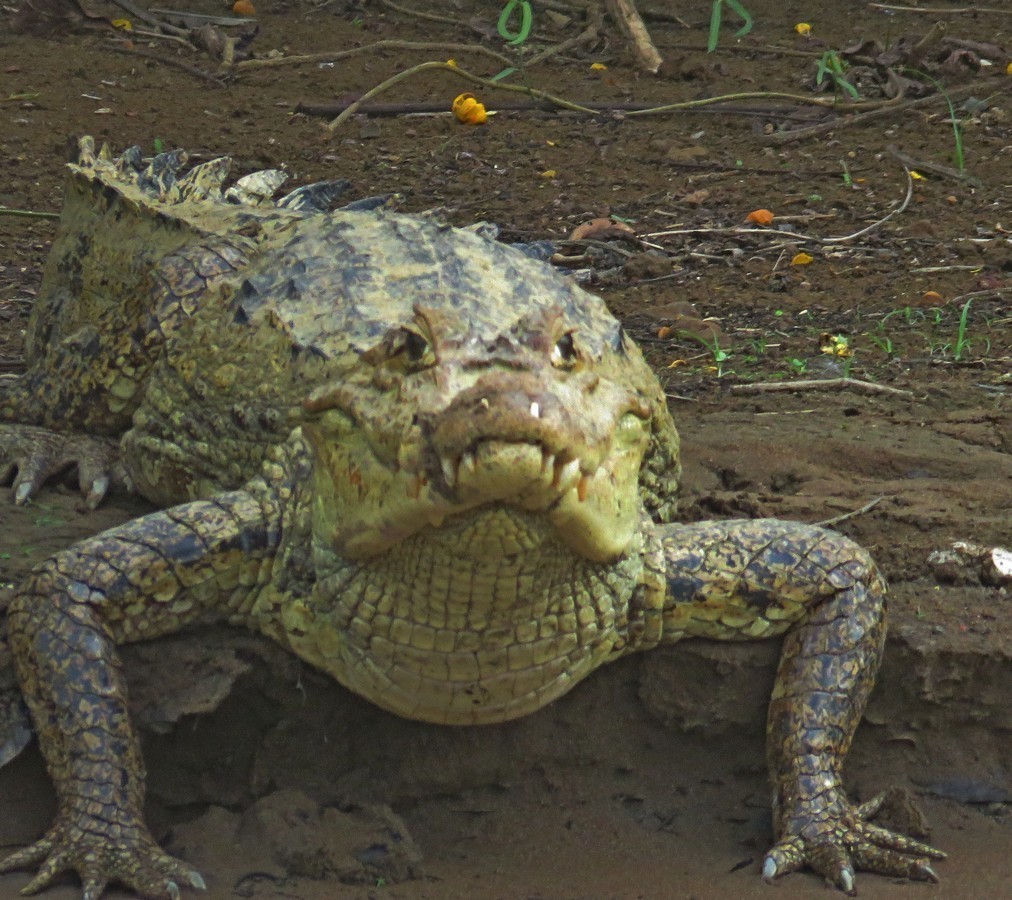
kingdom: Animalia
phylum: Chordata
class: Crocodylia
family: Alligatoridae
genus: Caiman
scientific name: Caiman crocodilus
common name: Common caiman
